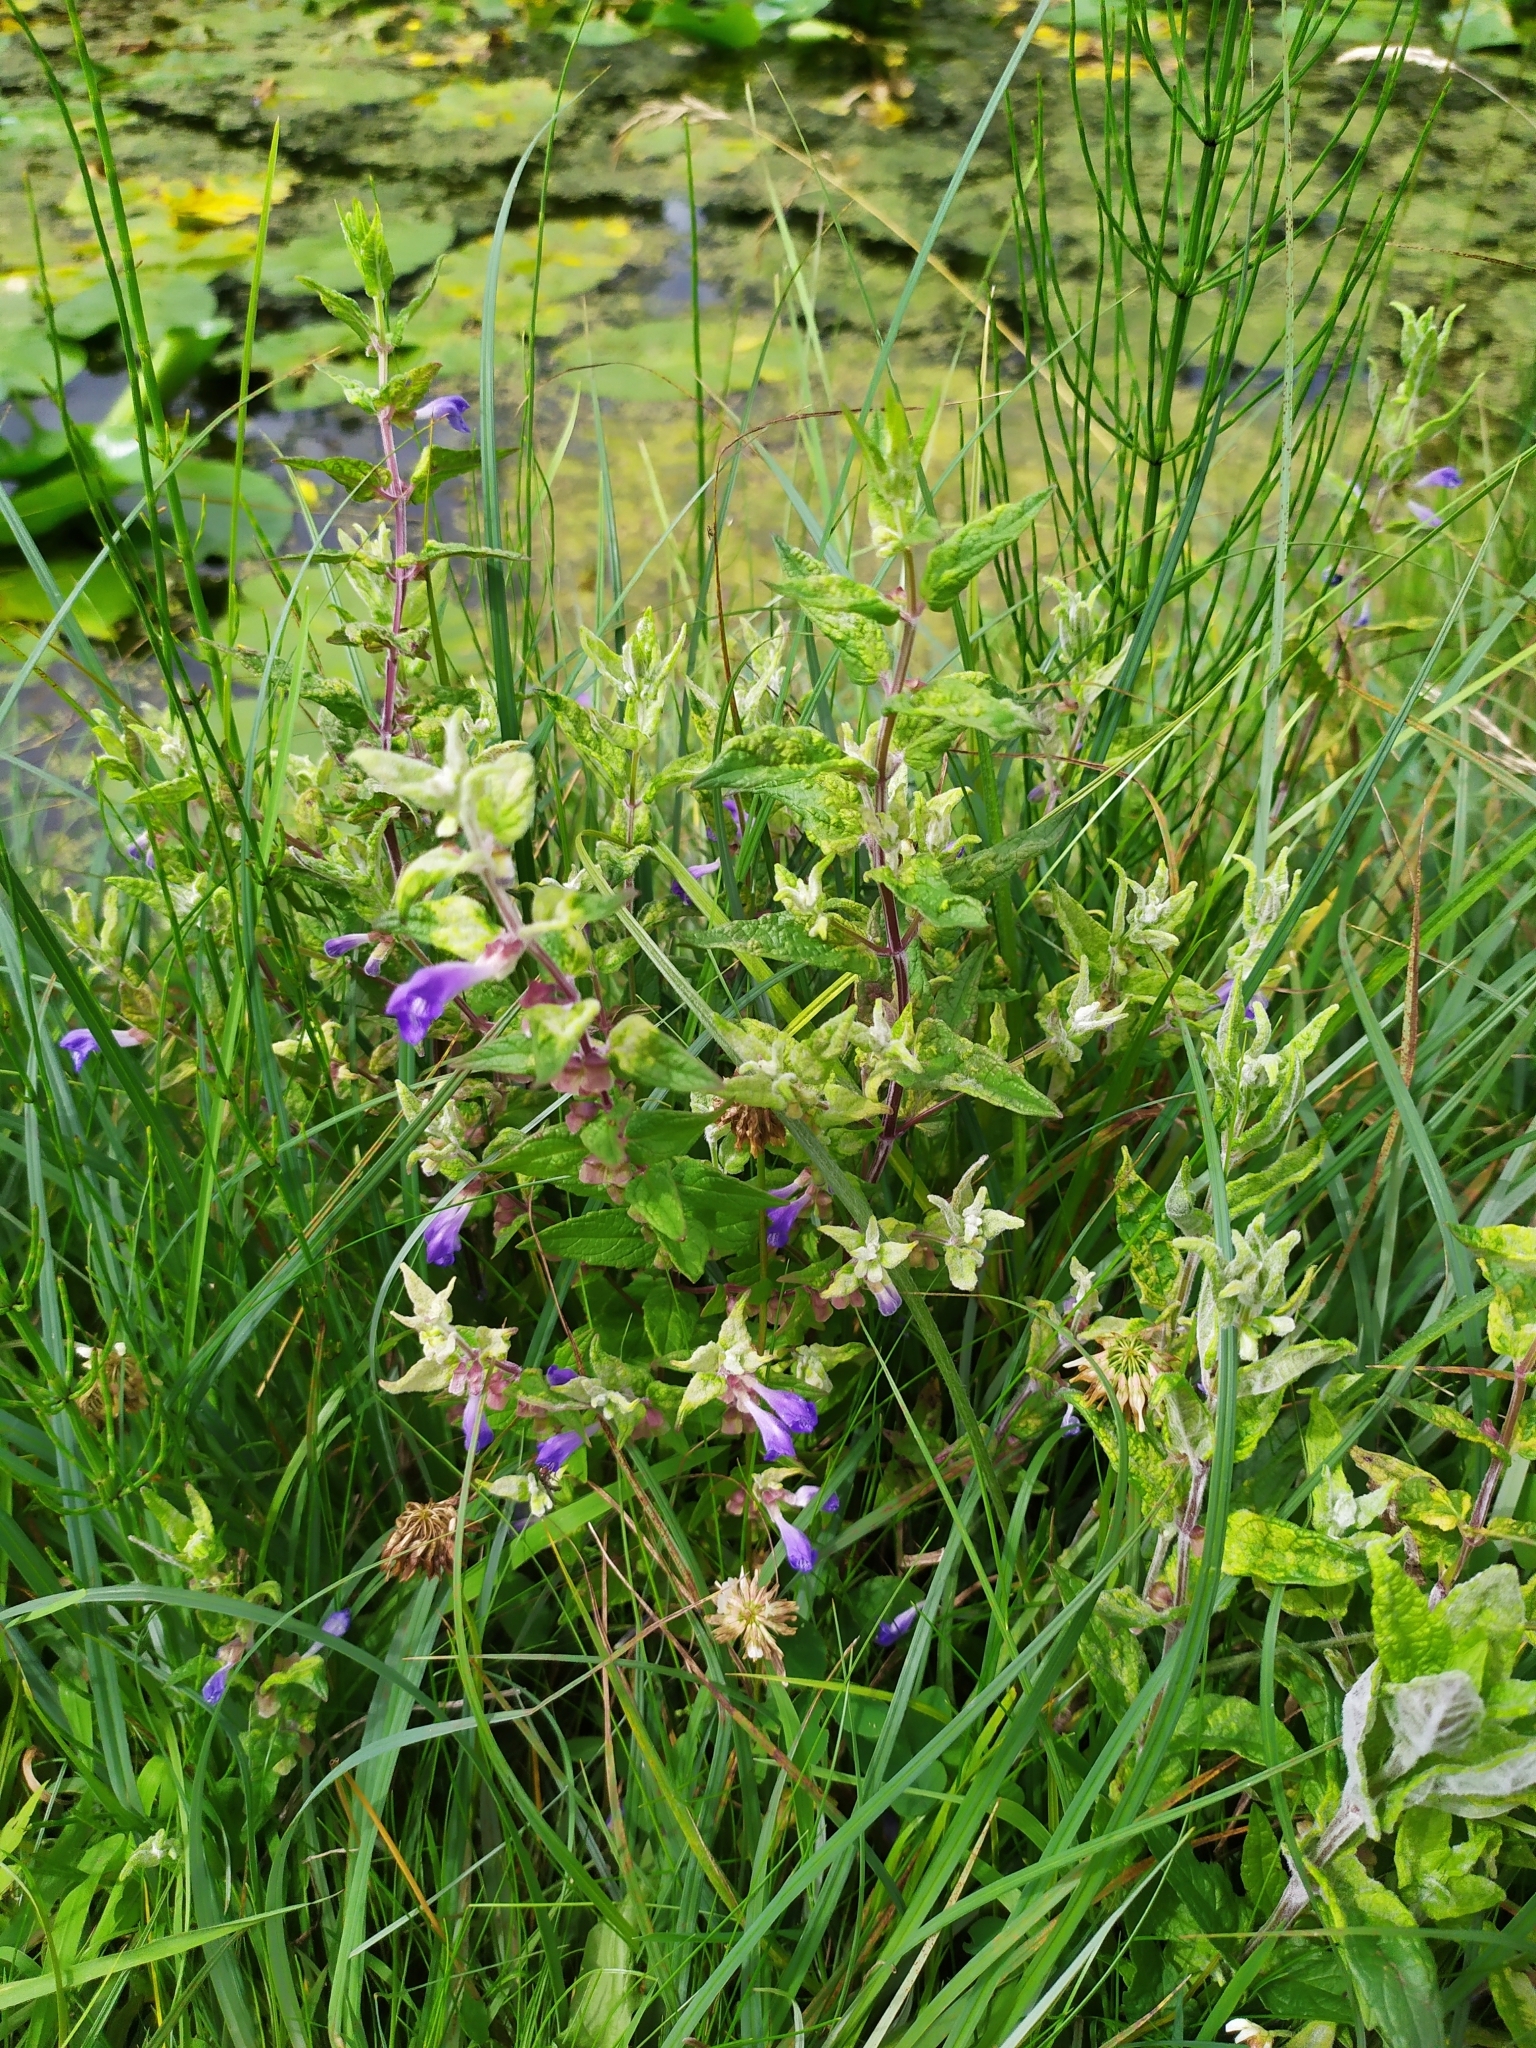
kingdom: Plantae
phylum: Tracheophyta
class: Magnoliopsida
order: Lamiales
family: Lamiaceae
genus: Scutellaria
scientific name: Scutellaria galericulata
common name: Skullcap
